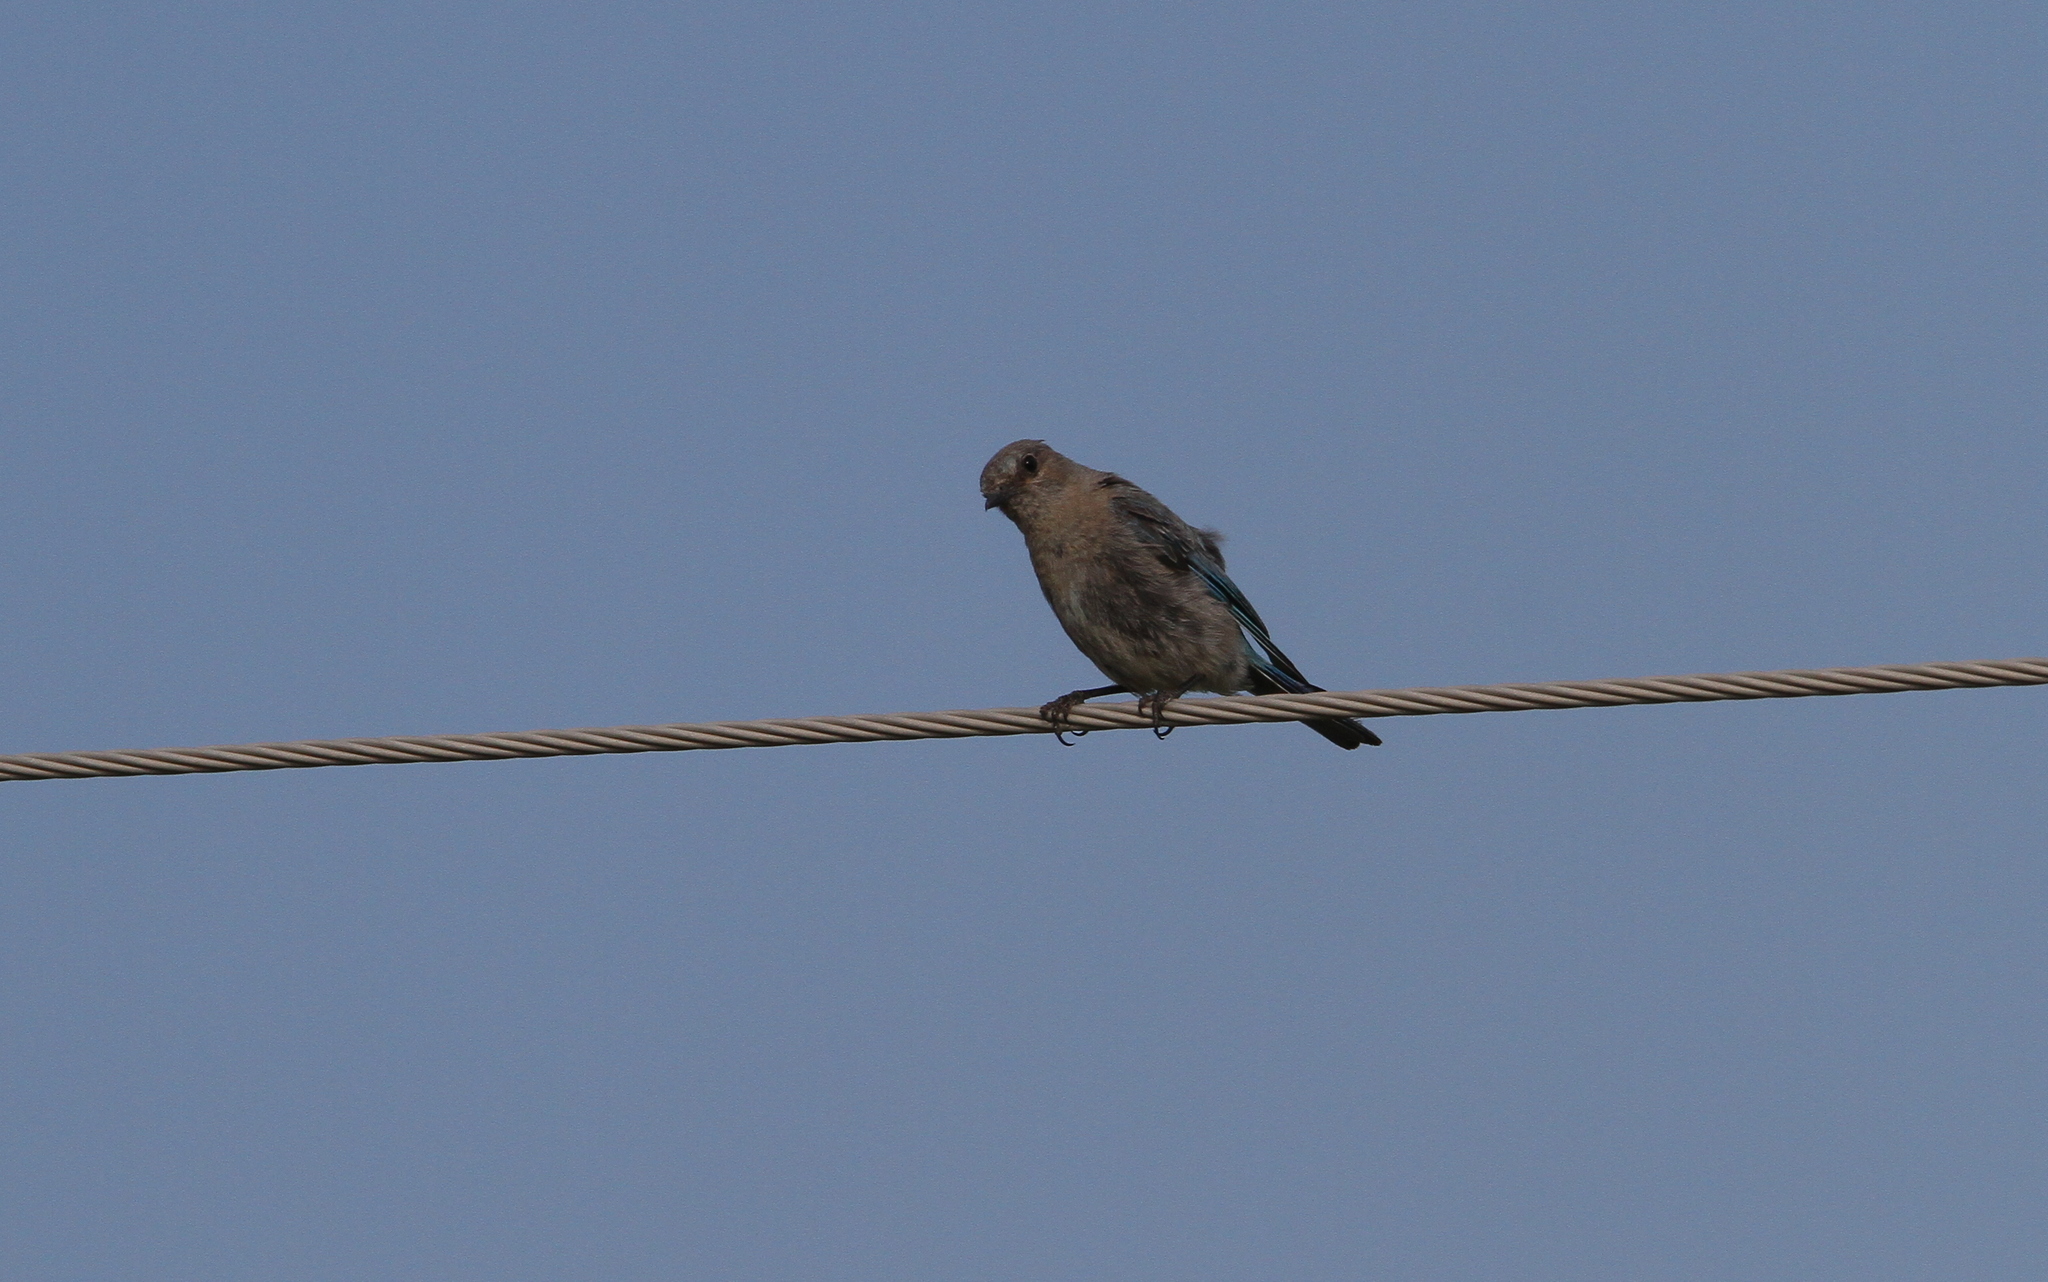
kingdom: Animalia
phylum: Chordata
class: Aves
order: Passeriformes
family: Turdidae
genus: Sialia
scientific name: Sialia currucoides
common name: Mountain bluebird
